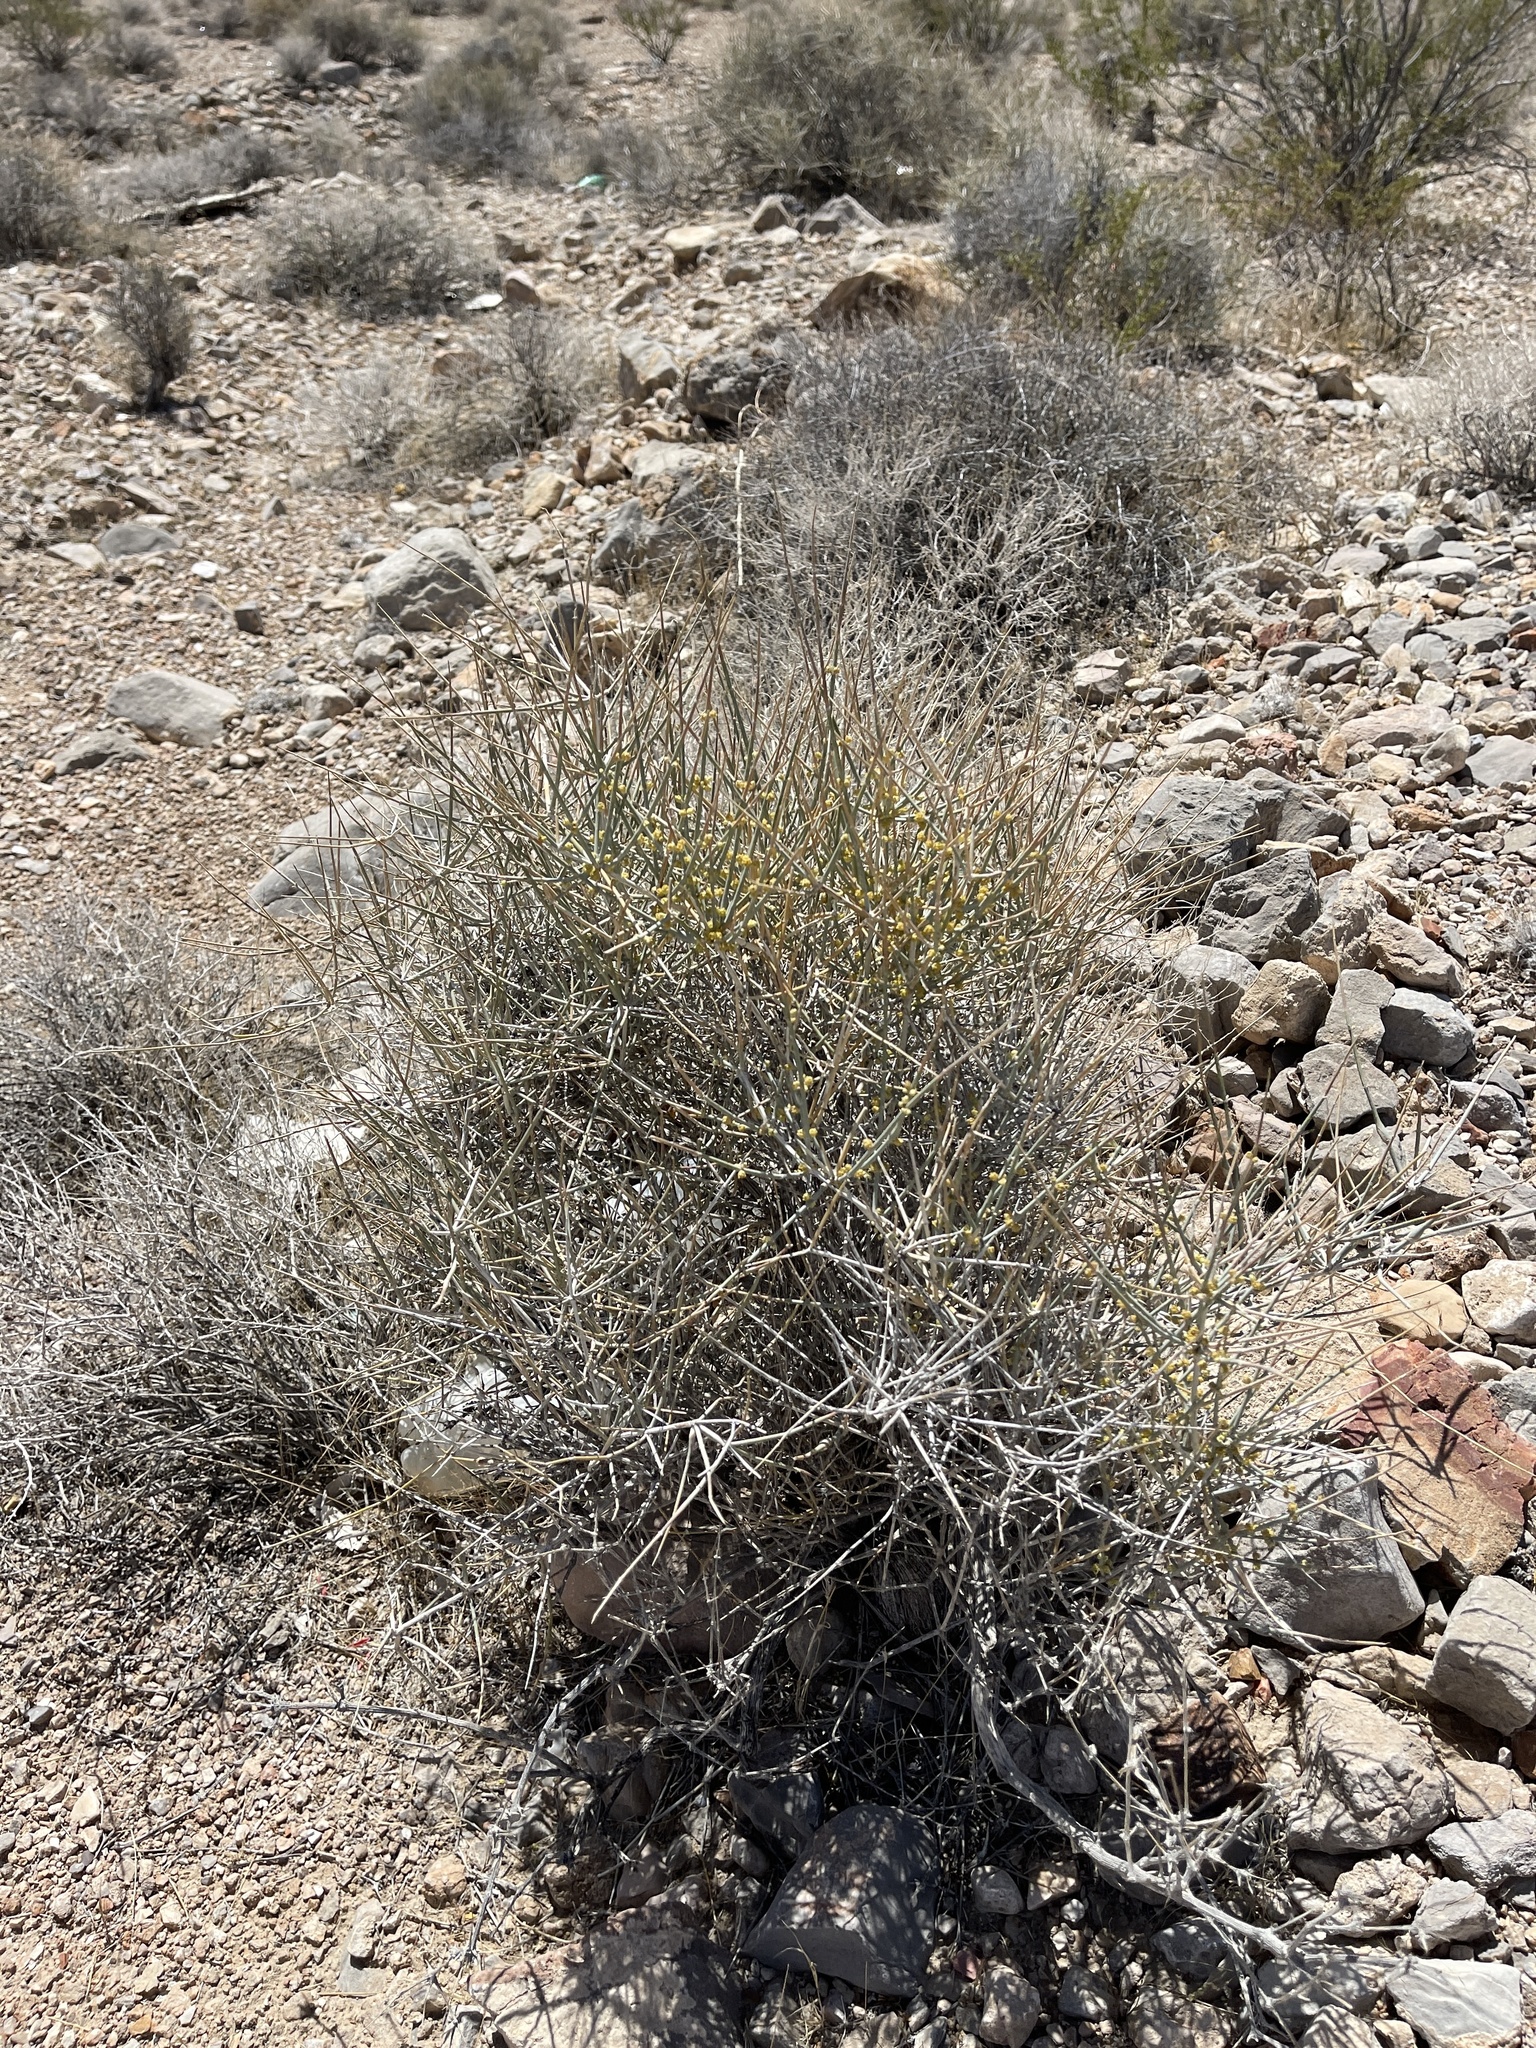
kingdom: Plantae
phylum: Tracheophyta
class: Gnetopsida
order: Ephedrales
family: Ephedraceae
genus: Ephedra
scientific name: Ephedra nevadensis
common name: Gray ephedra
